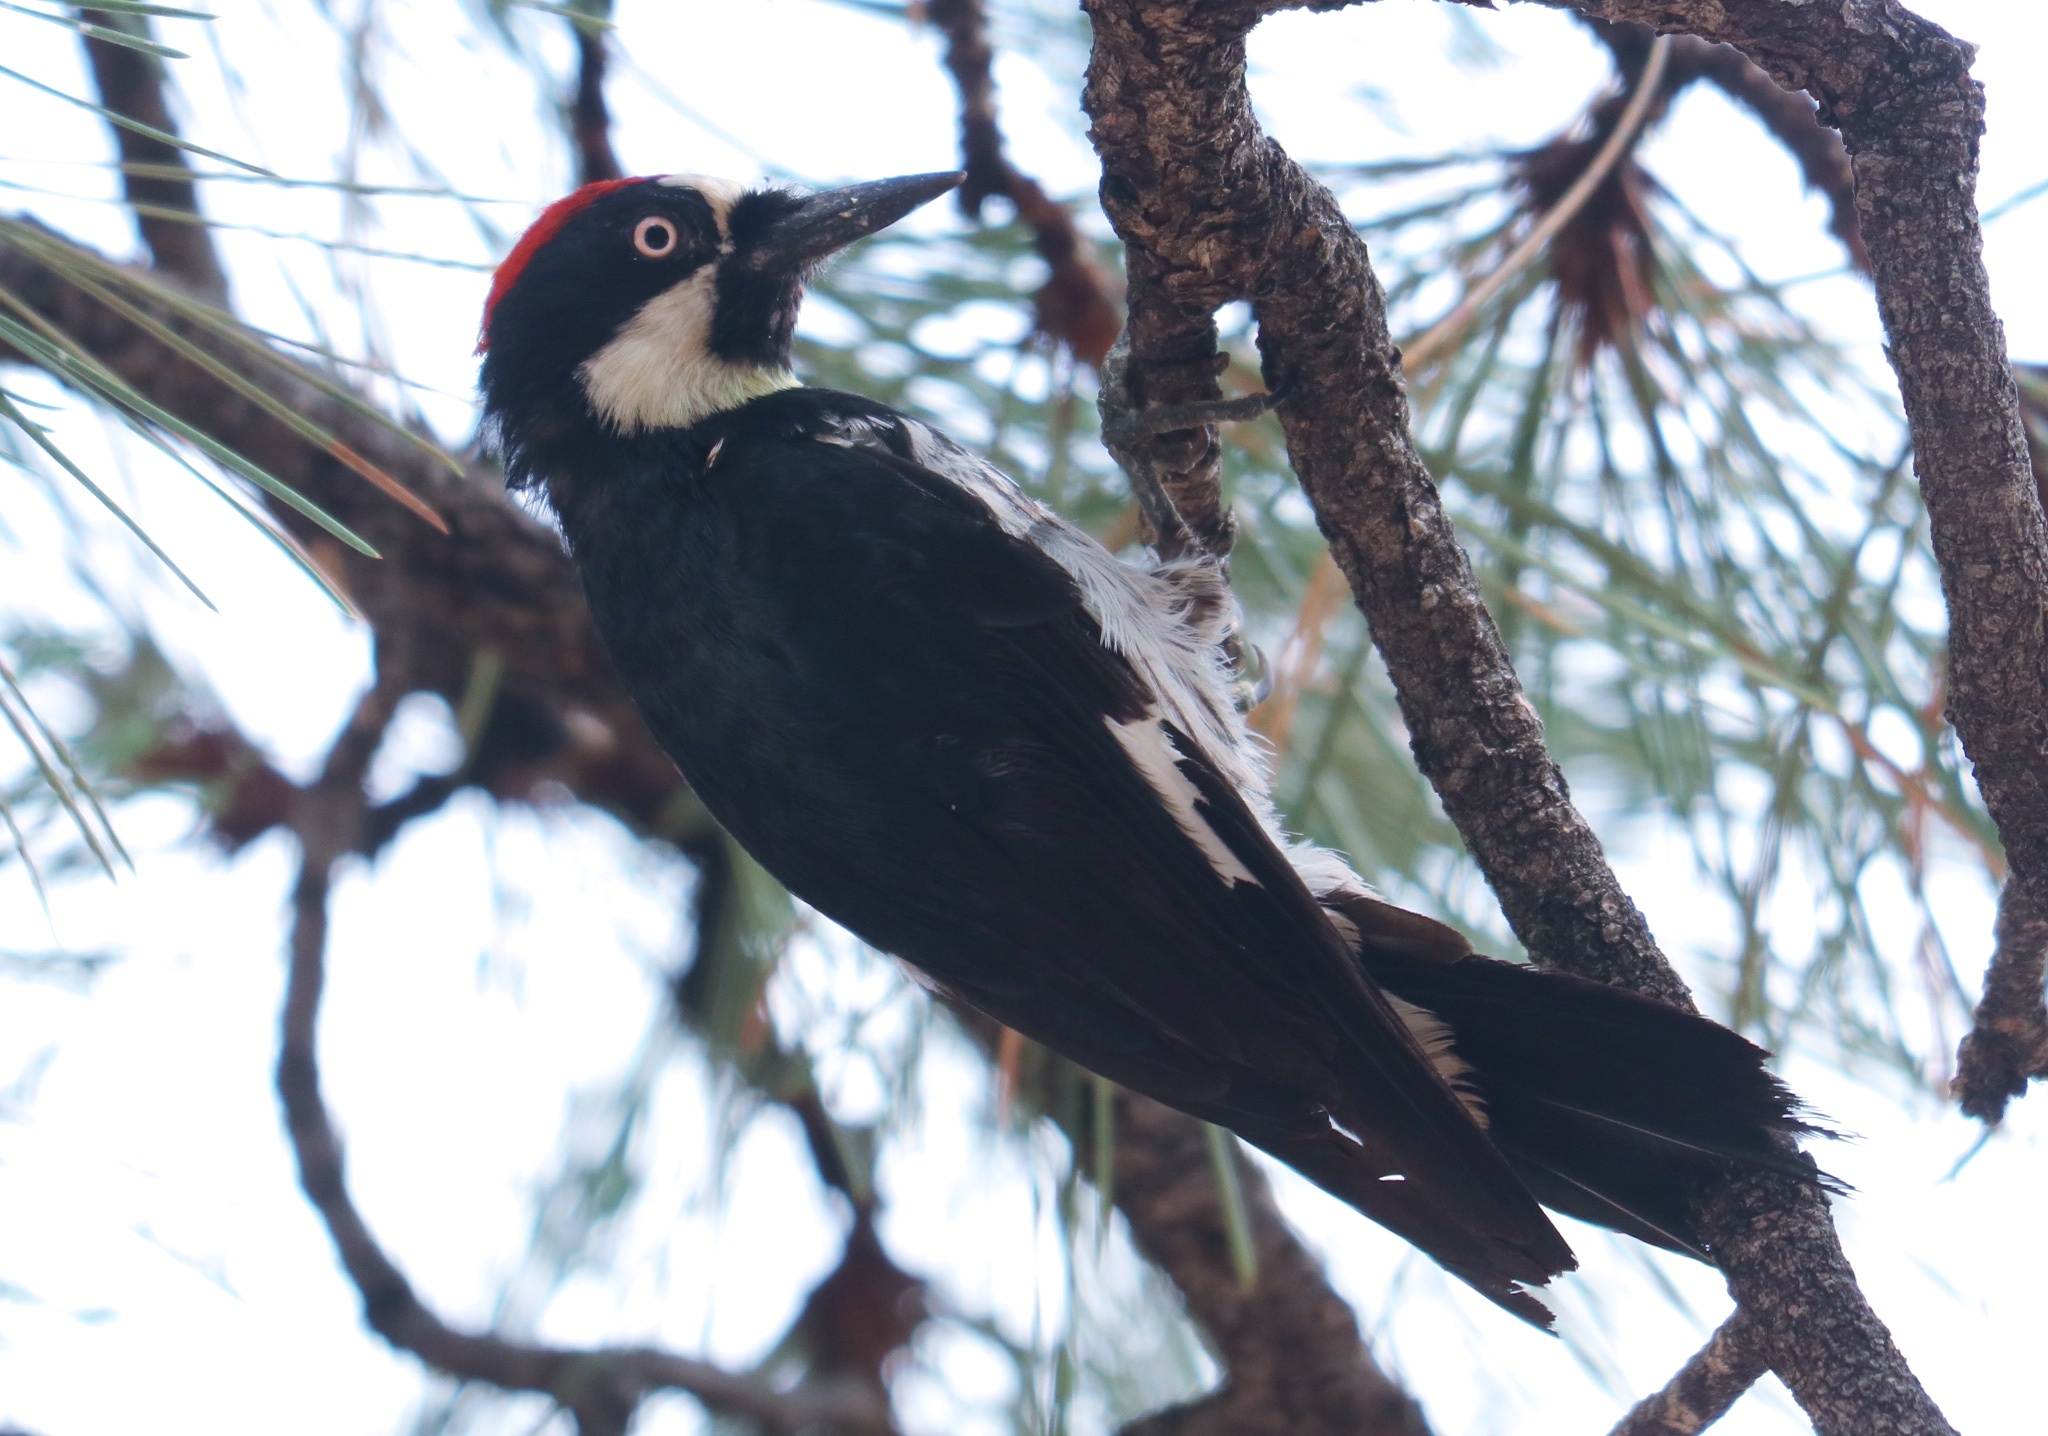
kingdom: Animalia
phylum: Chordata
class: Aves
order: Piciformes
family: Picidae
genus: Melanerpes
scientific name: Melanerpes formicivorus
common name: Acorn woodpecker
